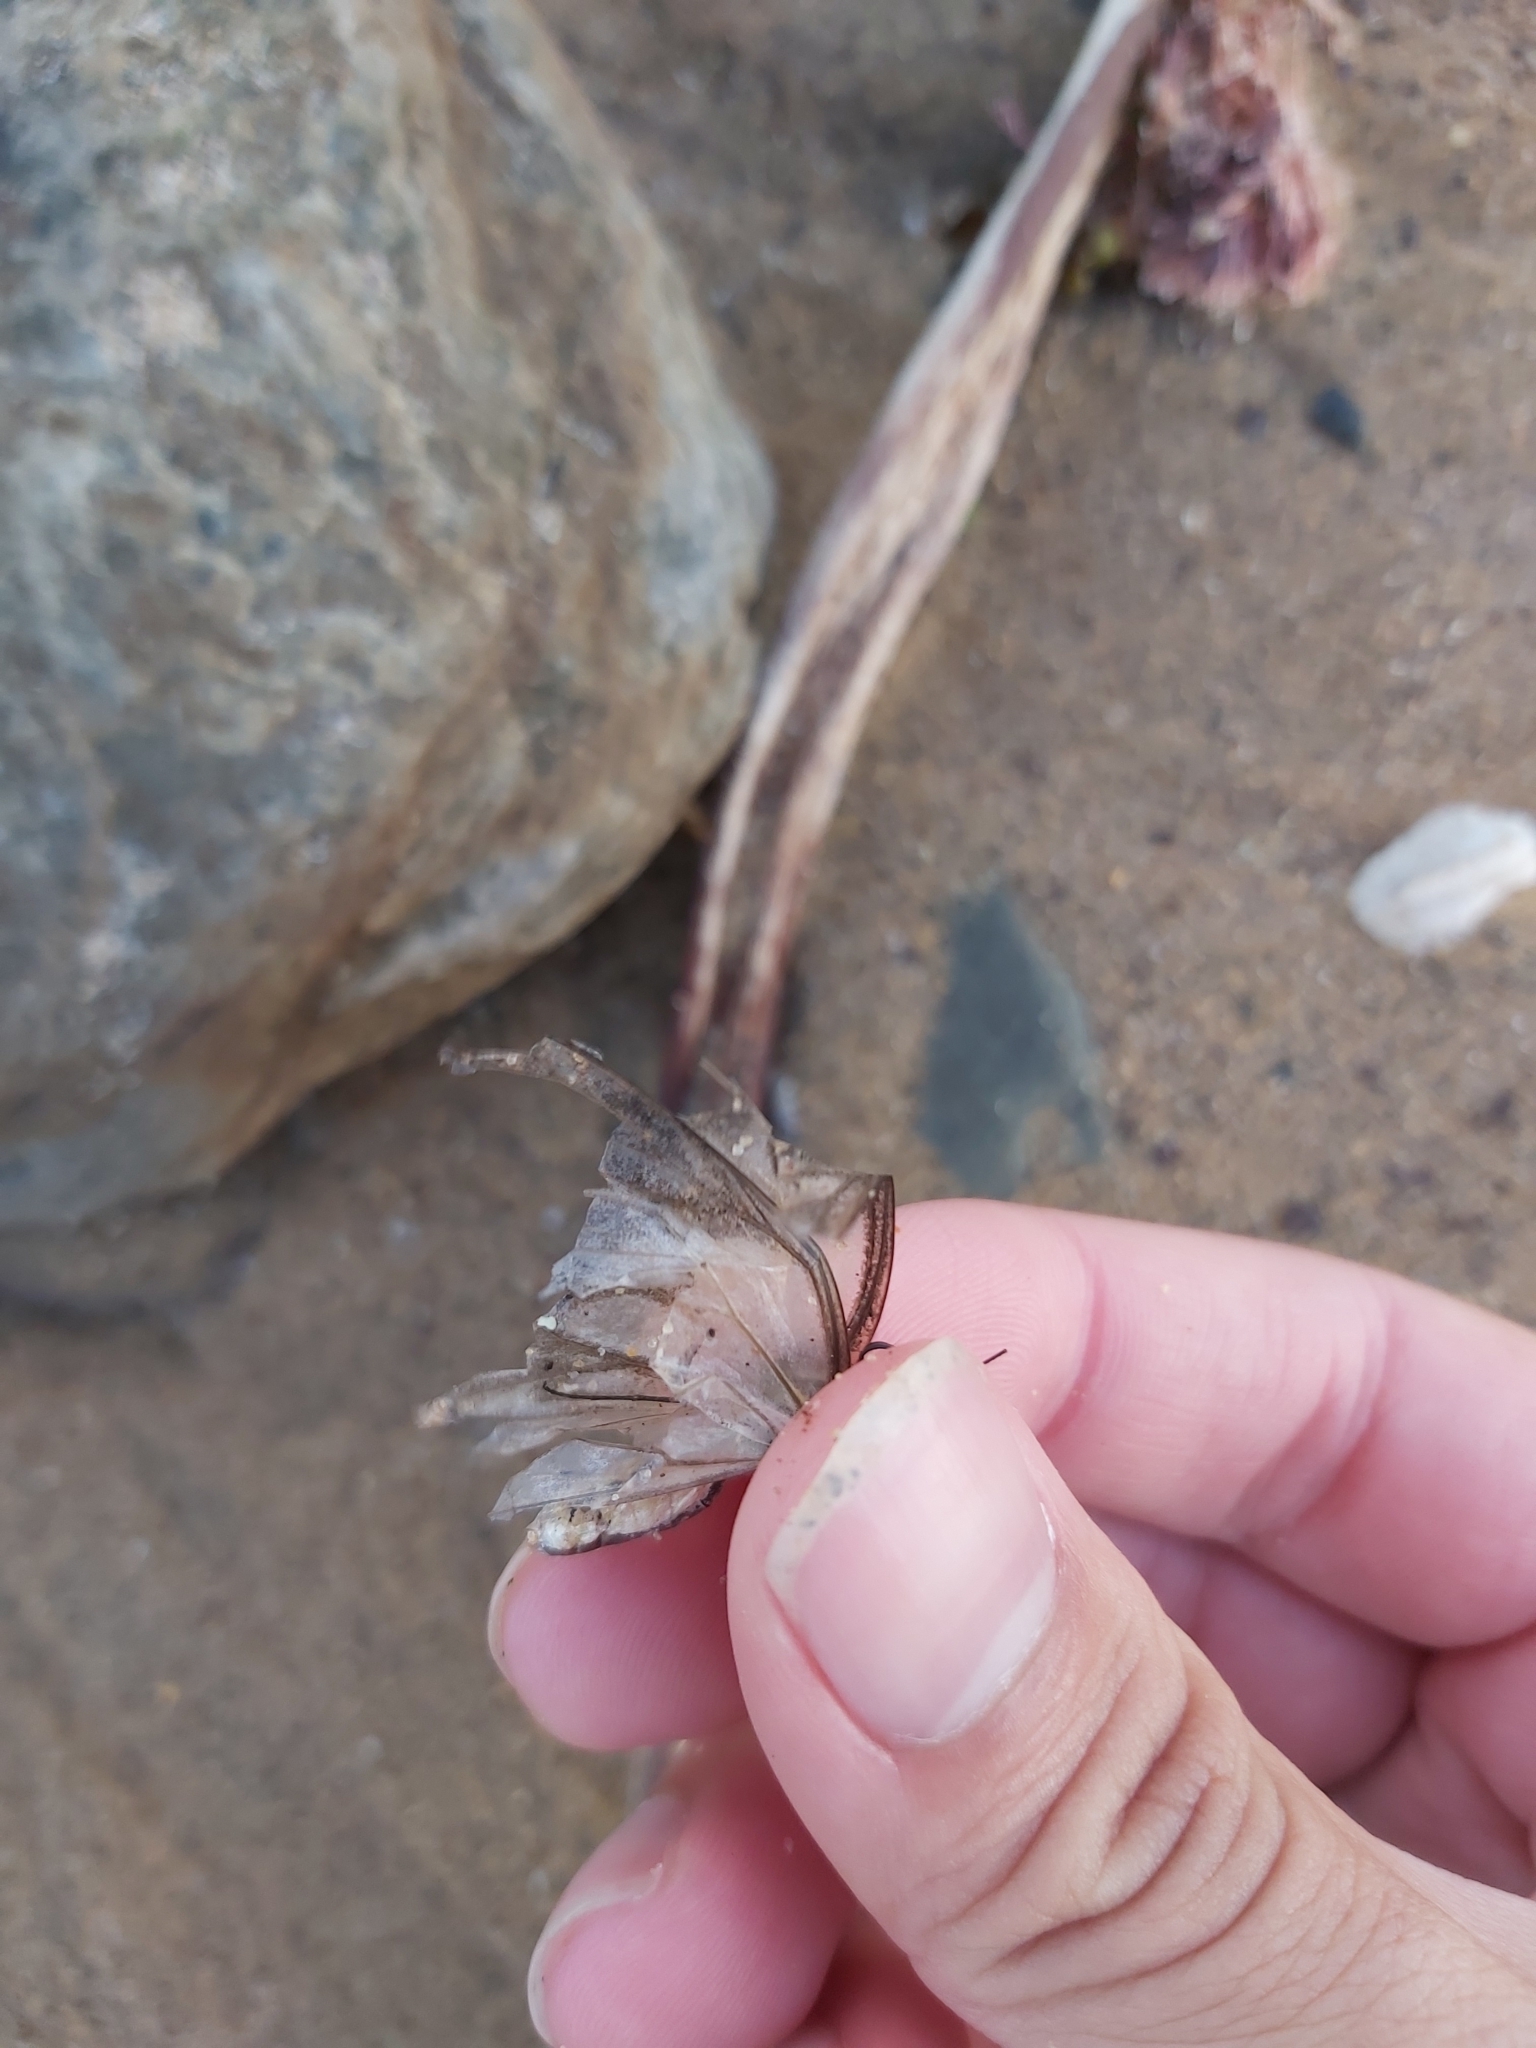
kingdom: Animalia
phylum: Arthropoda
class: Insecta
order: Lepidoptera
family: Pieridae
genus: Belenois
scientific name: Belenois java
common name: Caper white
